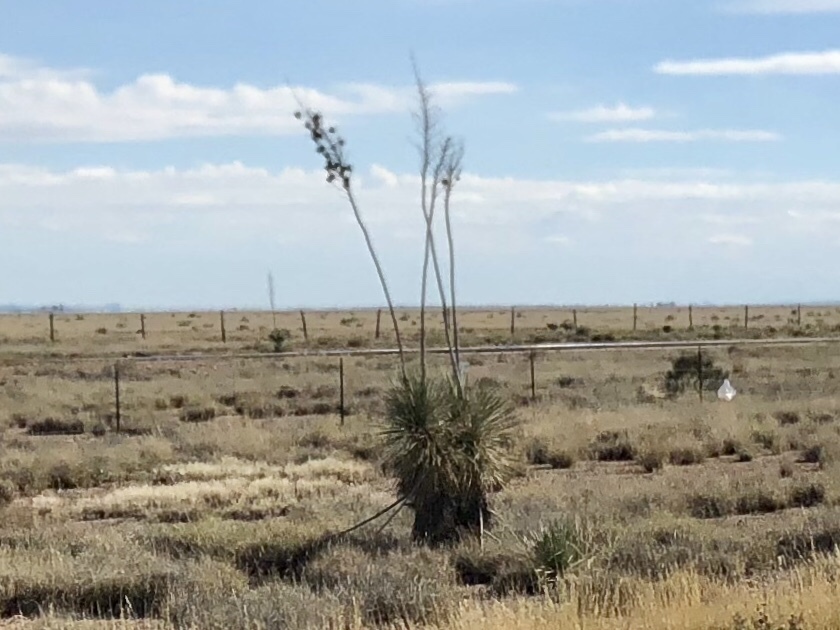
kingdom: Plantae
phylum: Tracheophyta
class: Liliopsida
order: Asparagales
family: Asparagaceae
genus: Yucca
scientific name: Yucca elata
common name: Palmella
